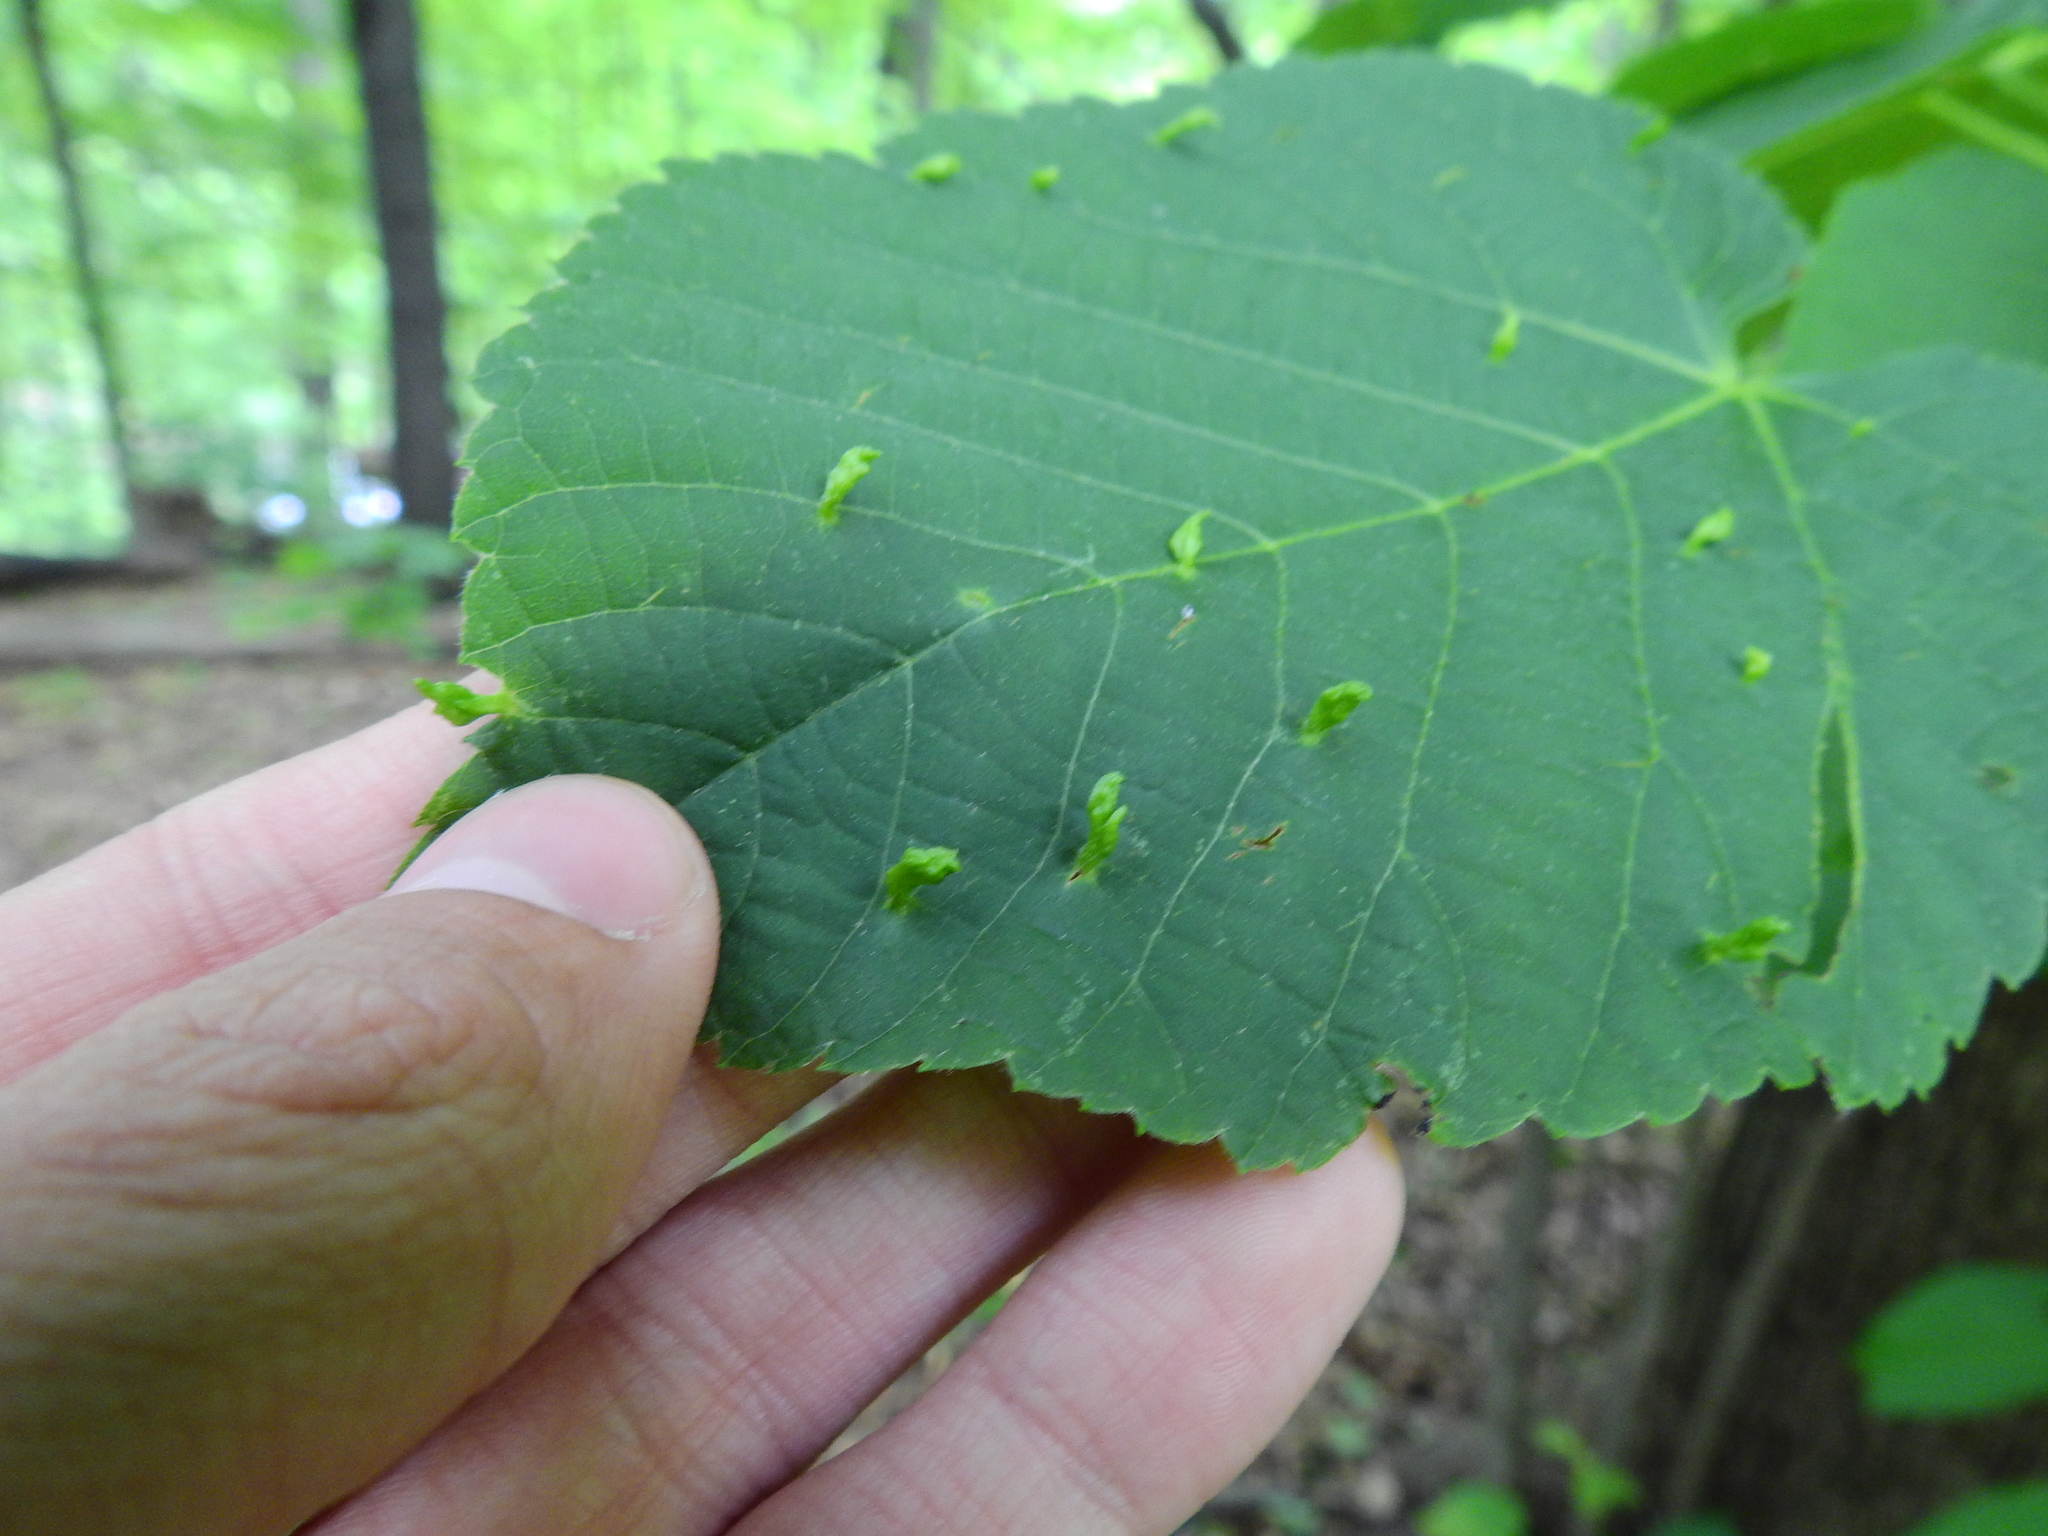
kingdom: Animalia
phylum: Arthropoda
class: Arachnida
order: Trombidiformes
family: Eriophyidae
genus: Eriophyes
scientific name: Eriophyes tiliae
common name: Red nail gall mite
